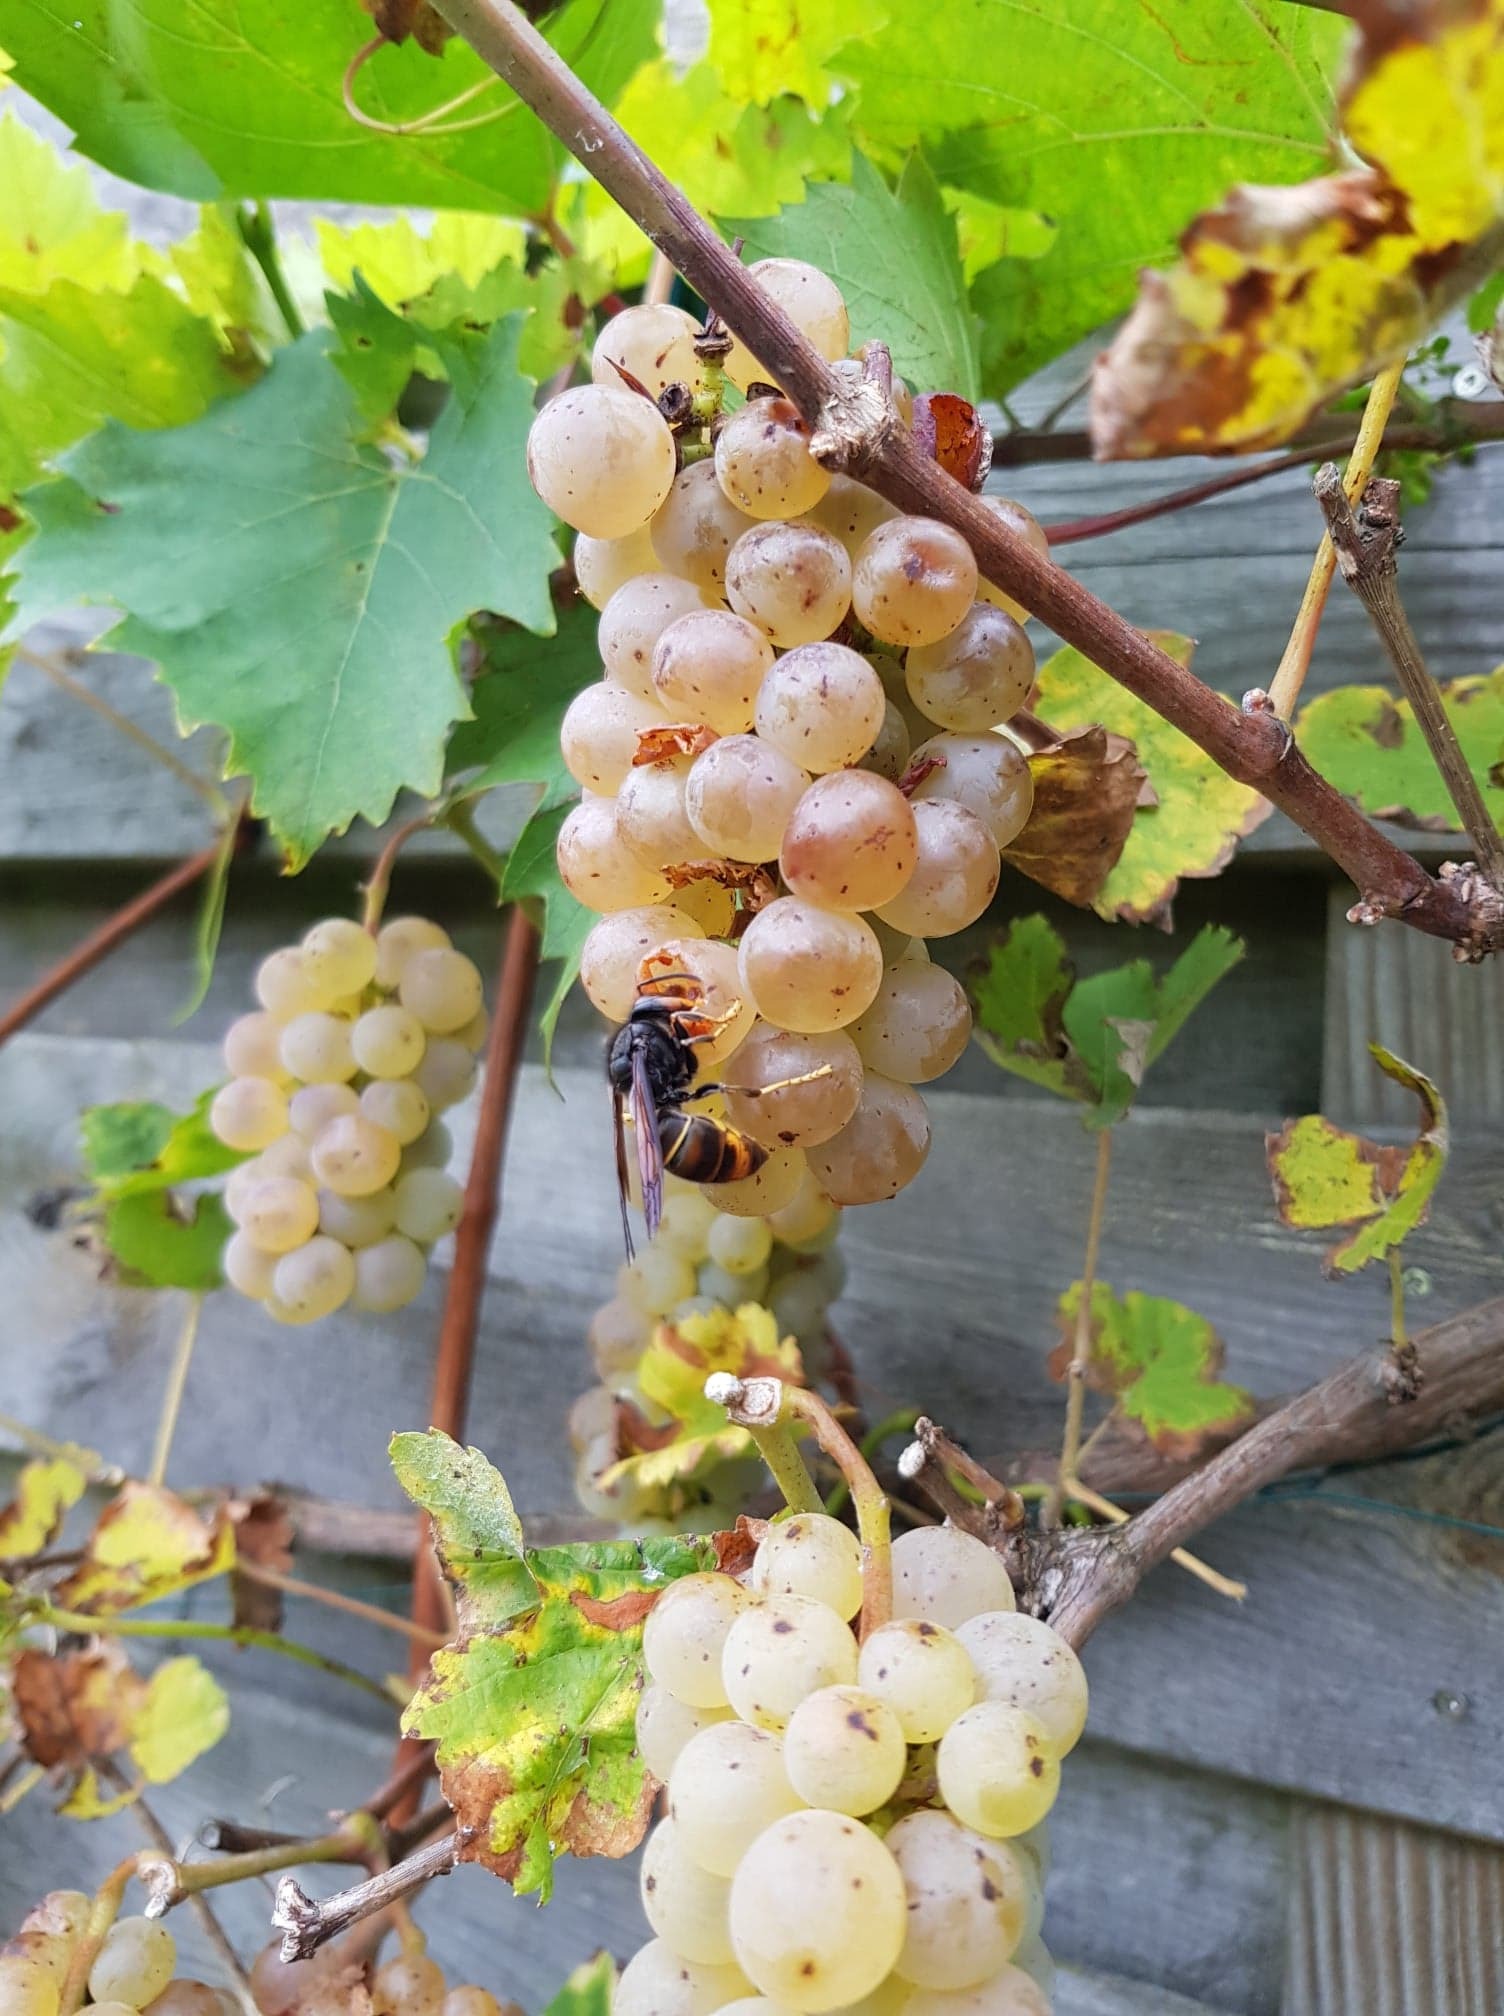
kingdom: Animalia
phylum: Arthropoda
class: Insecta
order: Hymenoptera
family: Vespidae
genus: Vespa
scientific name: Vespa velutina
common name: Asian hornet
